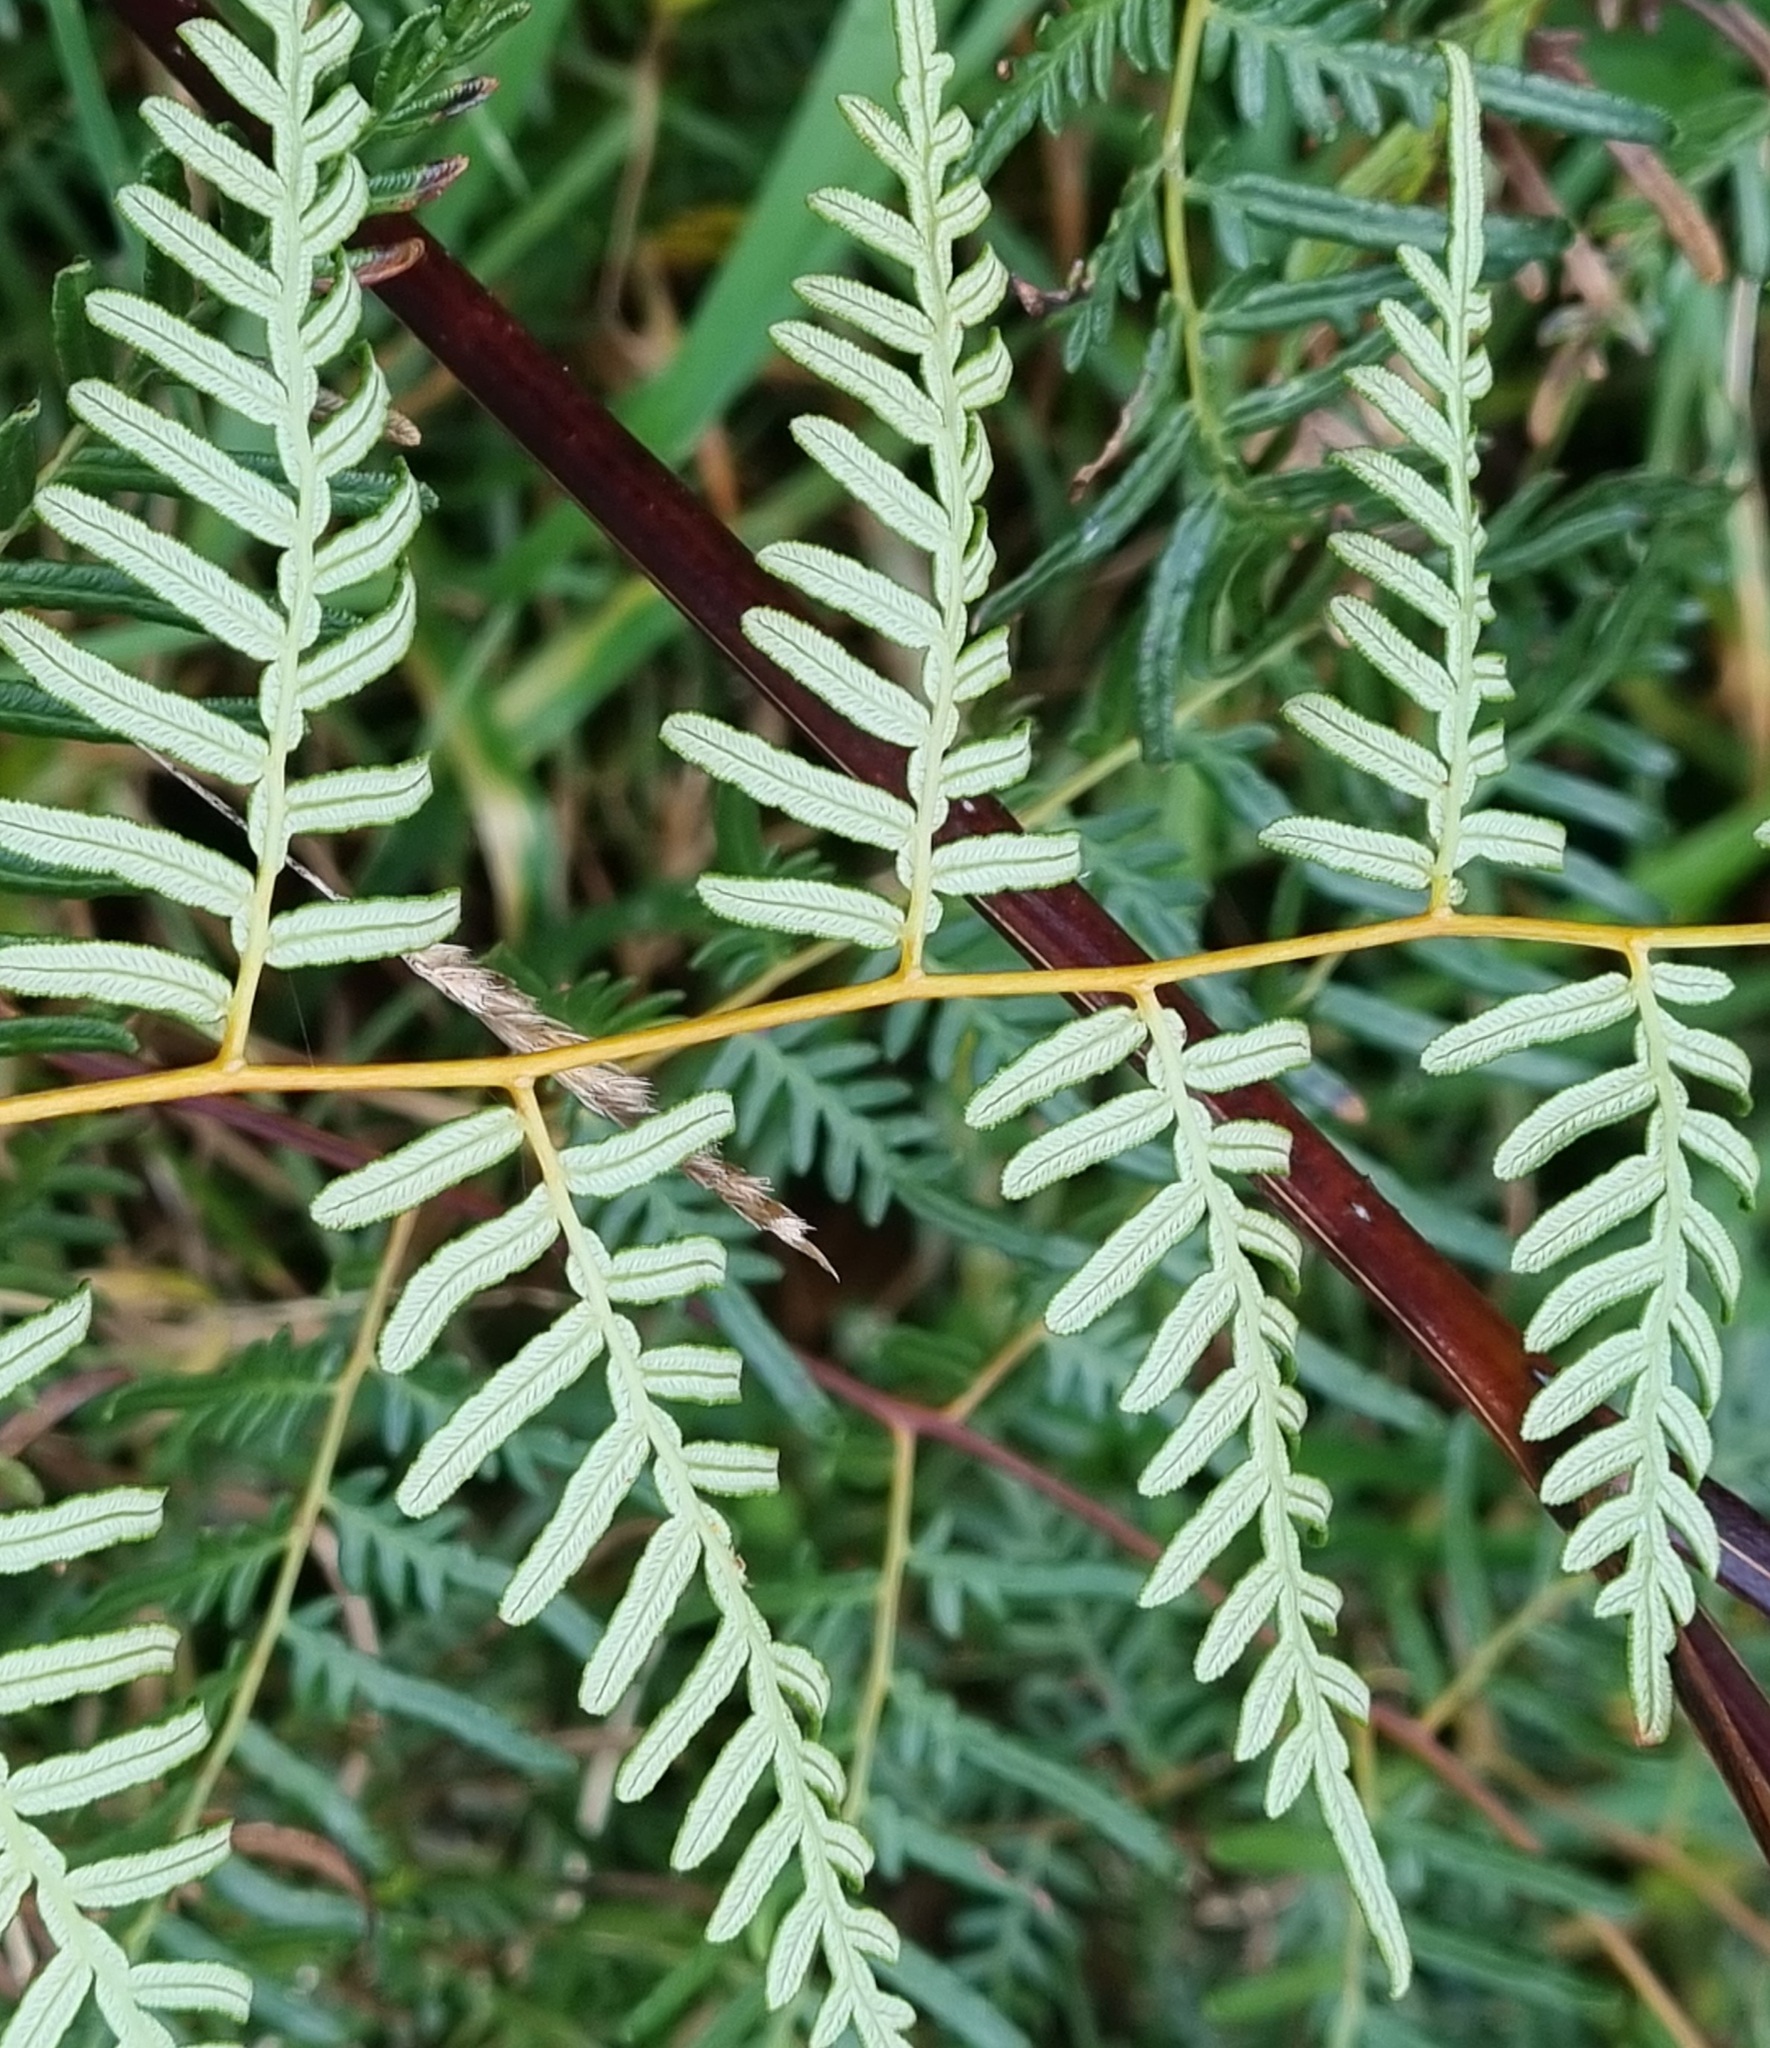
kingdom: Plantae
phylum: Tracheophyta
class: Polypodiopsida
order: Polypodiales
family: Dennstaedtiaceae
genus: Pteridium
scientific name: Pteridium esculentum
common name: Bracken fern
